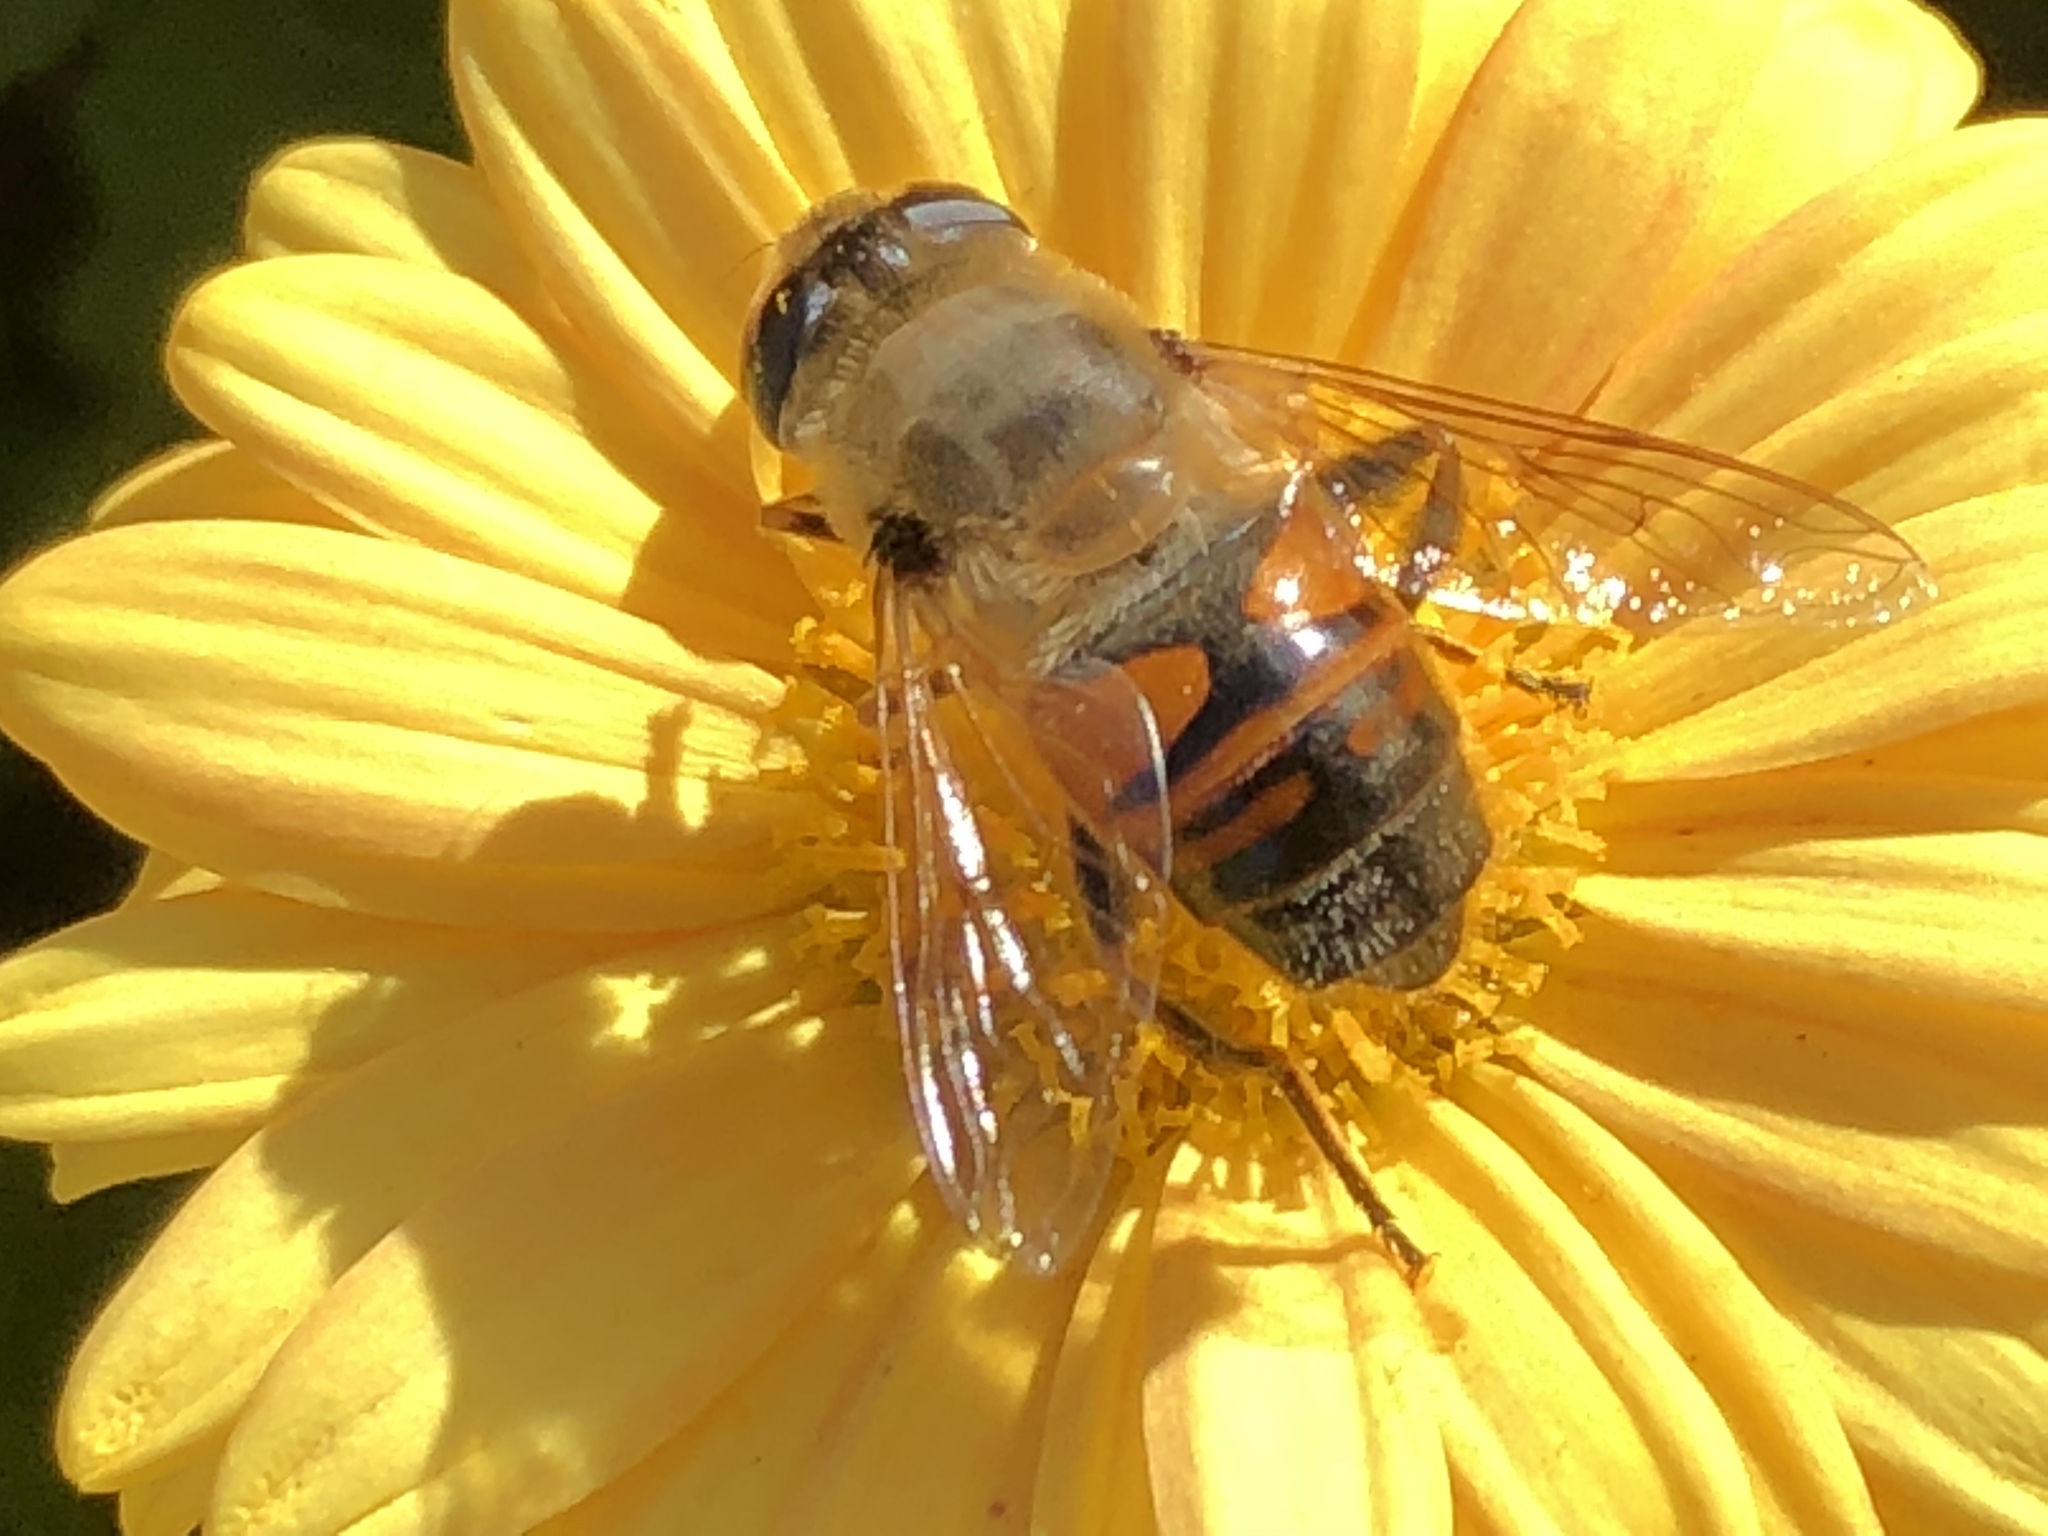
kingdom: Animalia
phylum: Arthropoda
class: Insecta
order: Diptera
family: Syrphidae
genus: Eristalis
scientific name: Eristalis tenax
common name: Drone fly
